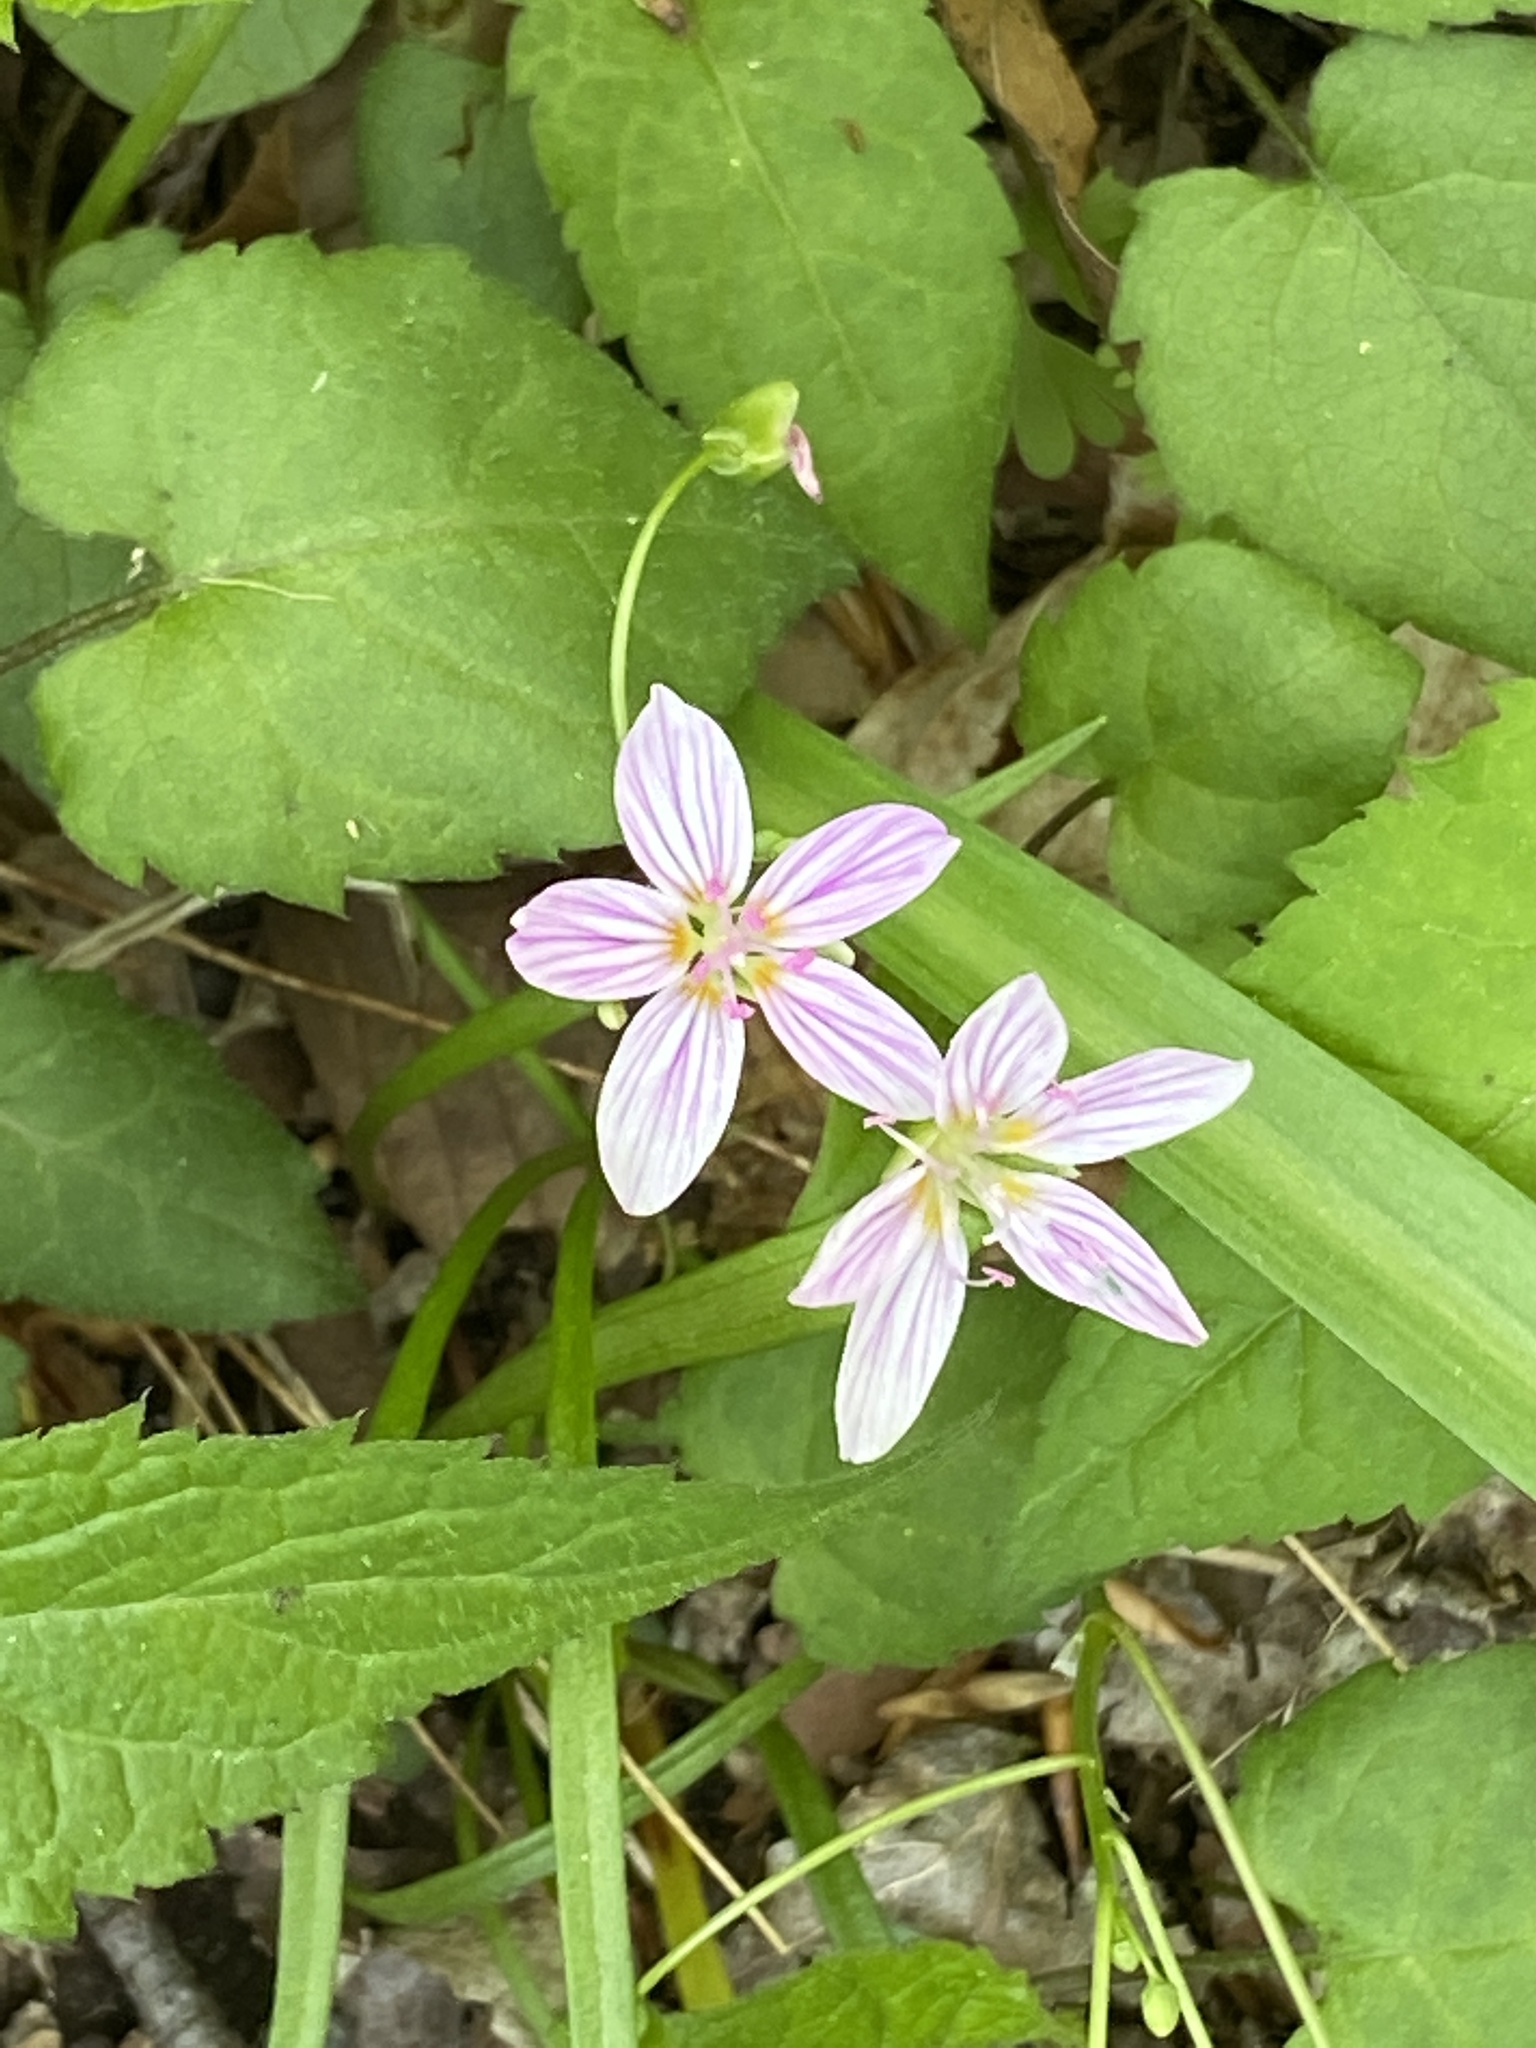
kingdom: Plantae
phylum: Tracheophyta
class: Magnoliopsida
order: Caryophyllales
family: Montiaceae
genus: Claytonia
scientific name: Claytonia virginica
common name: Virginia springbeauty
